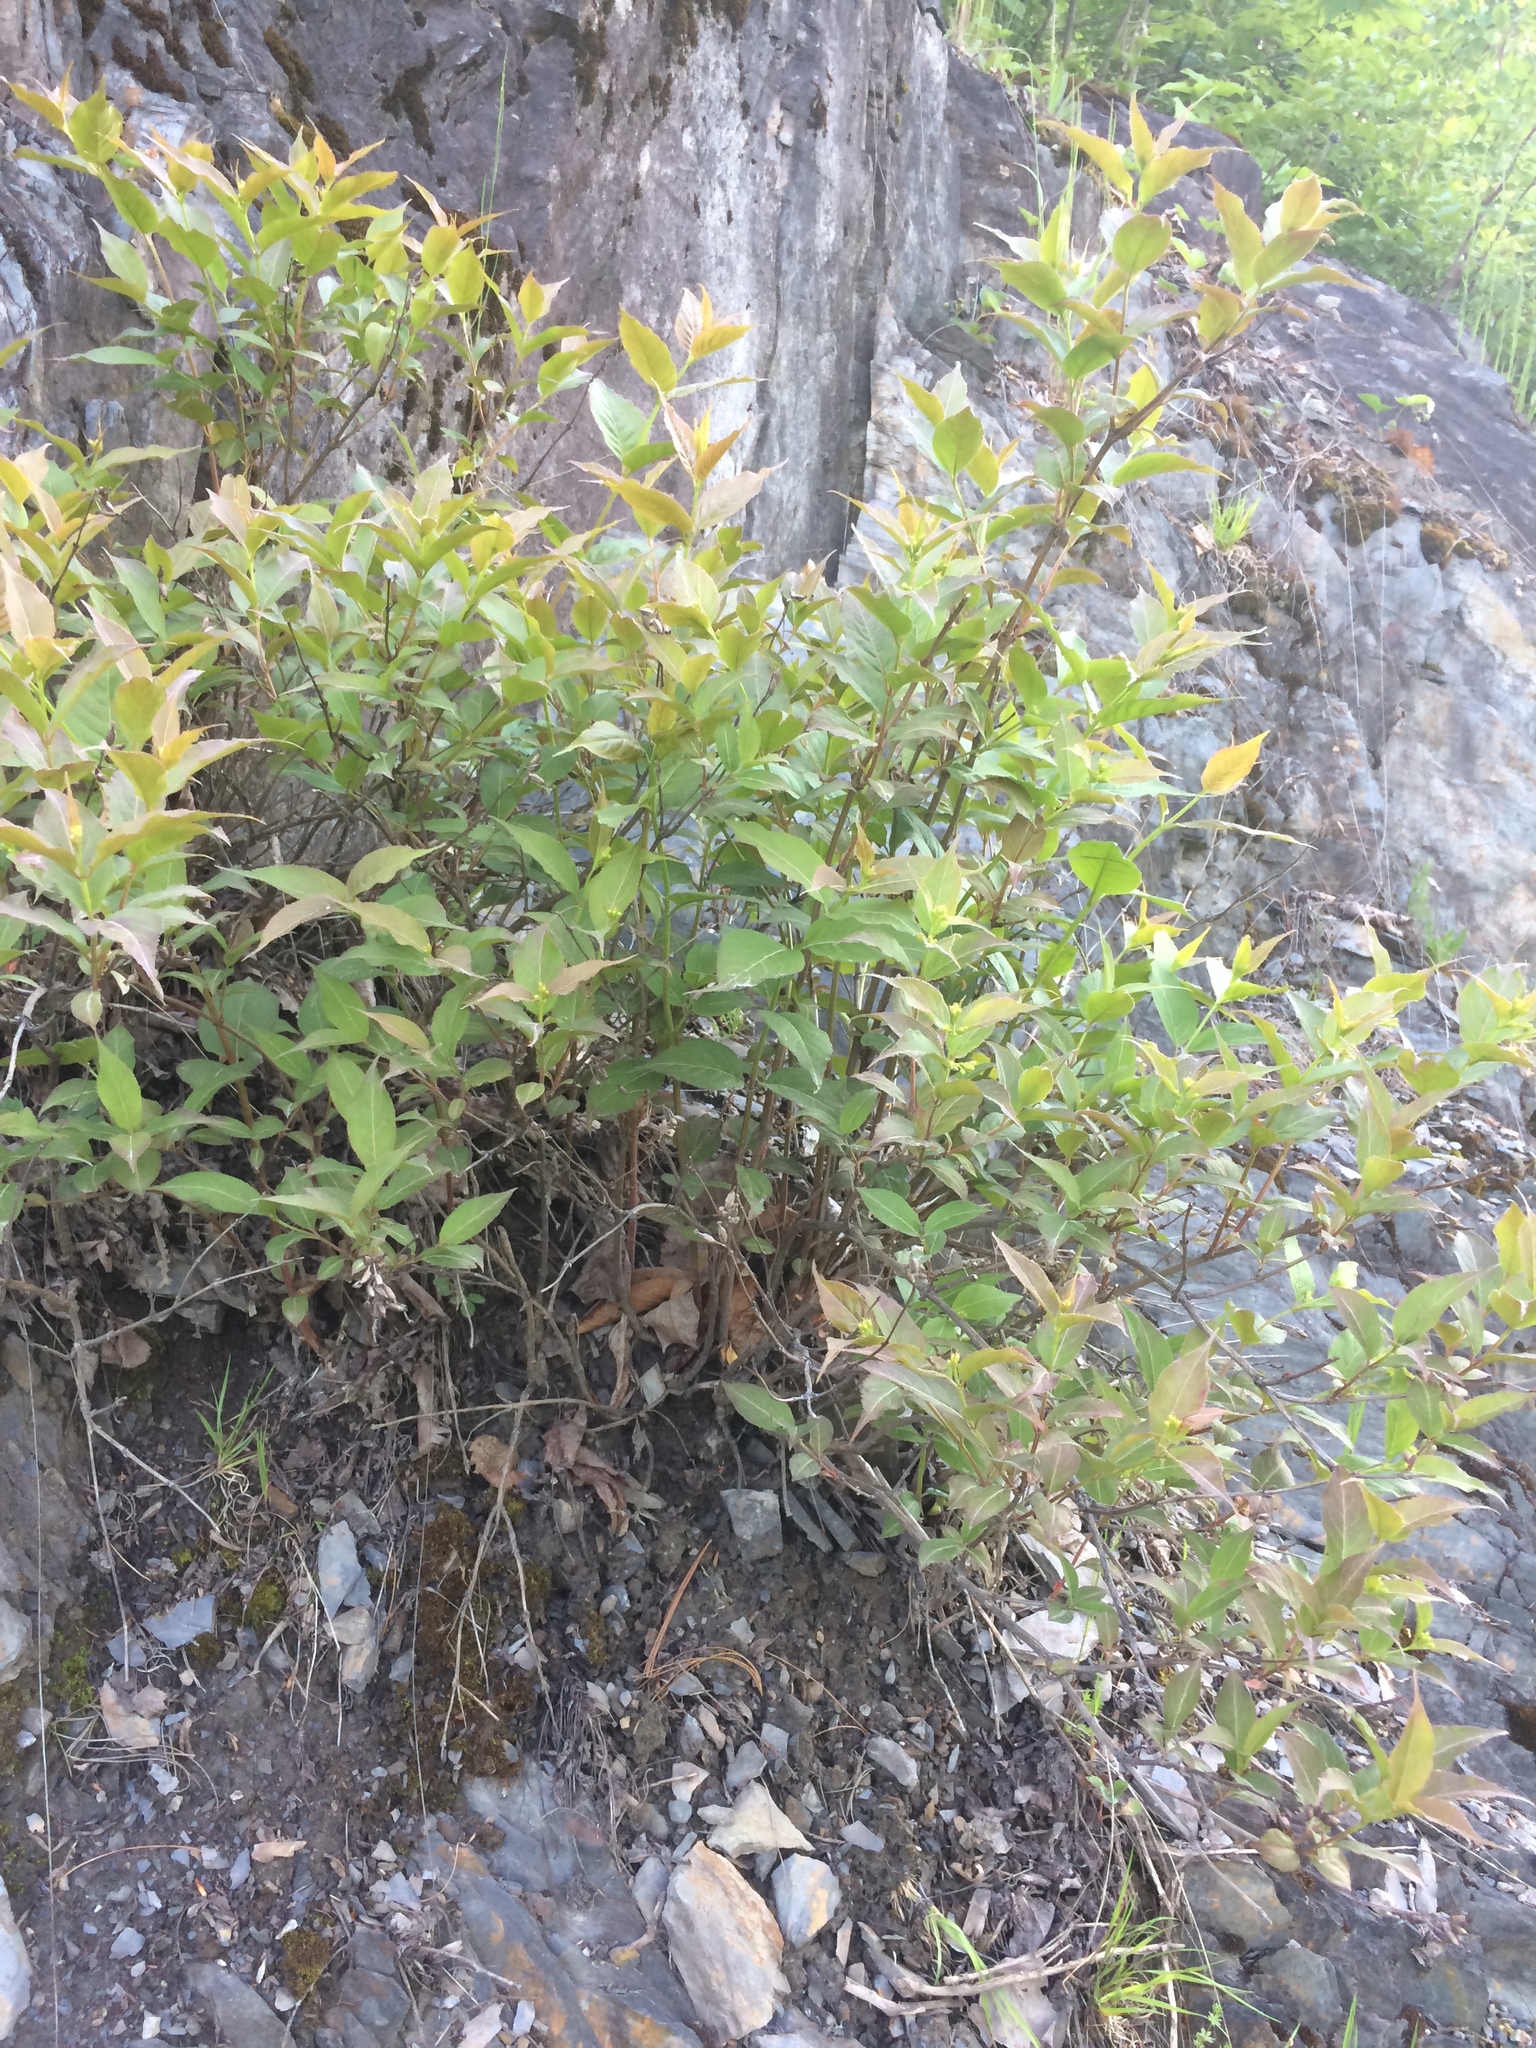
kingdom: Plantae
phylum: Tracheophyta
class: Magnoliopsida
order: Dipsacales
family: Caprifoliaceae
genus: Diervilla
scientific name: Diervilla lonicera
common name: Bush-honeysuckle
